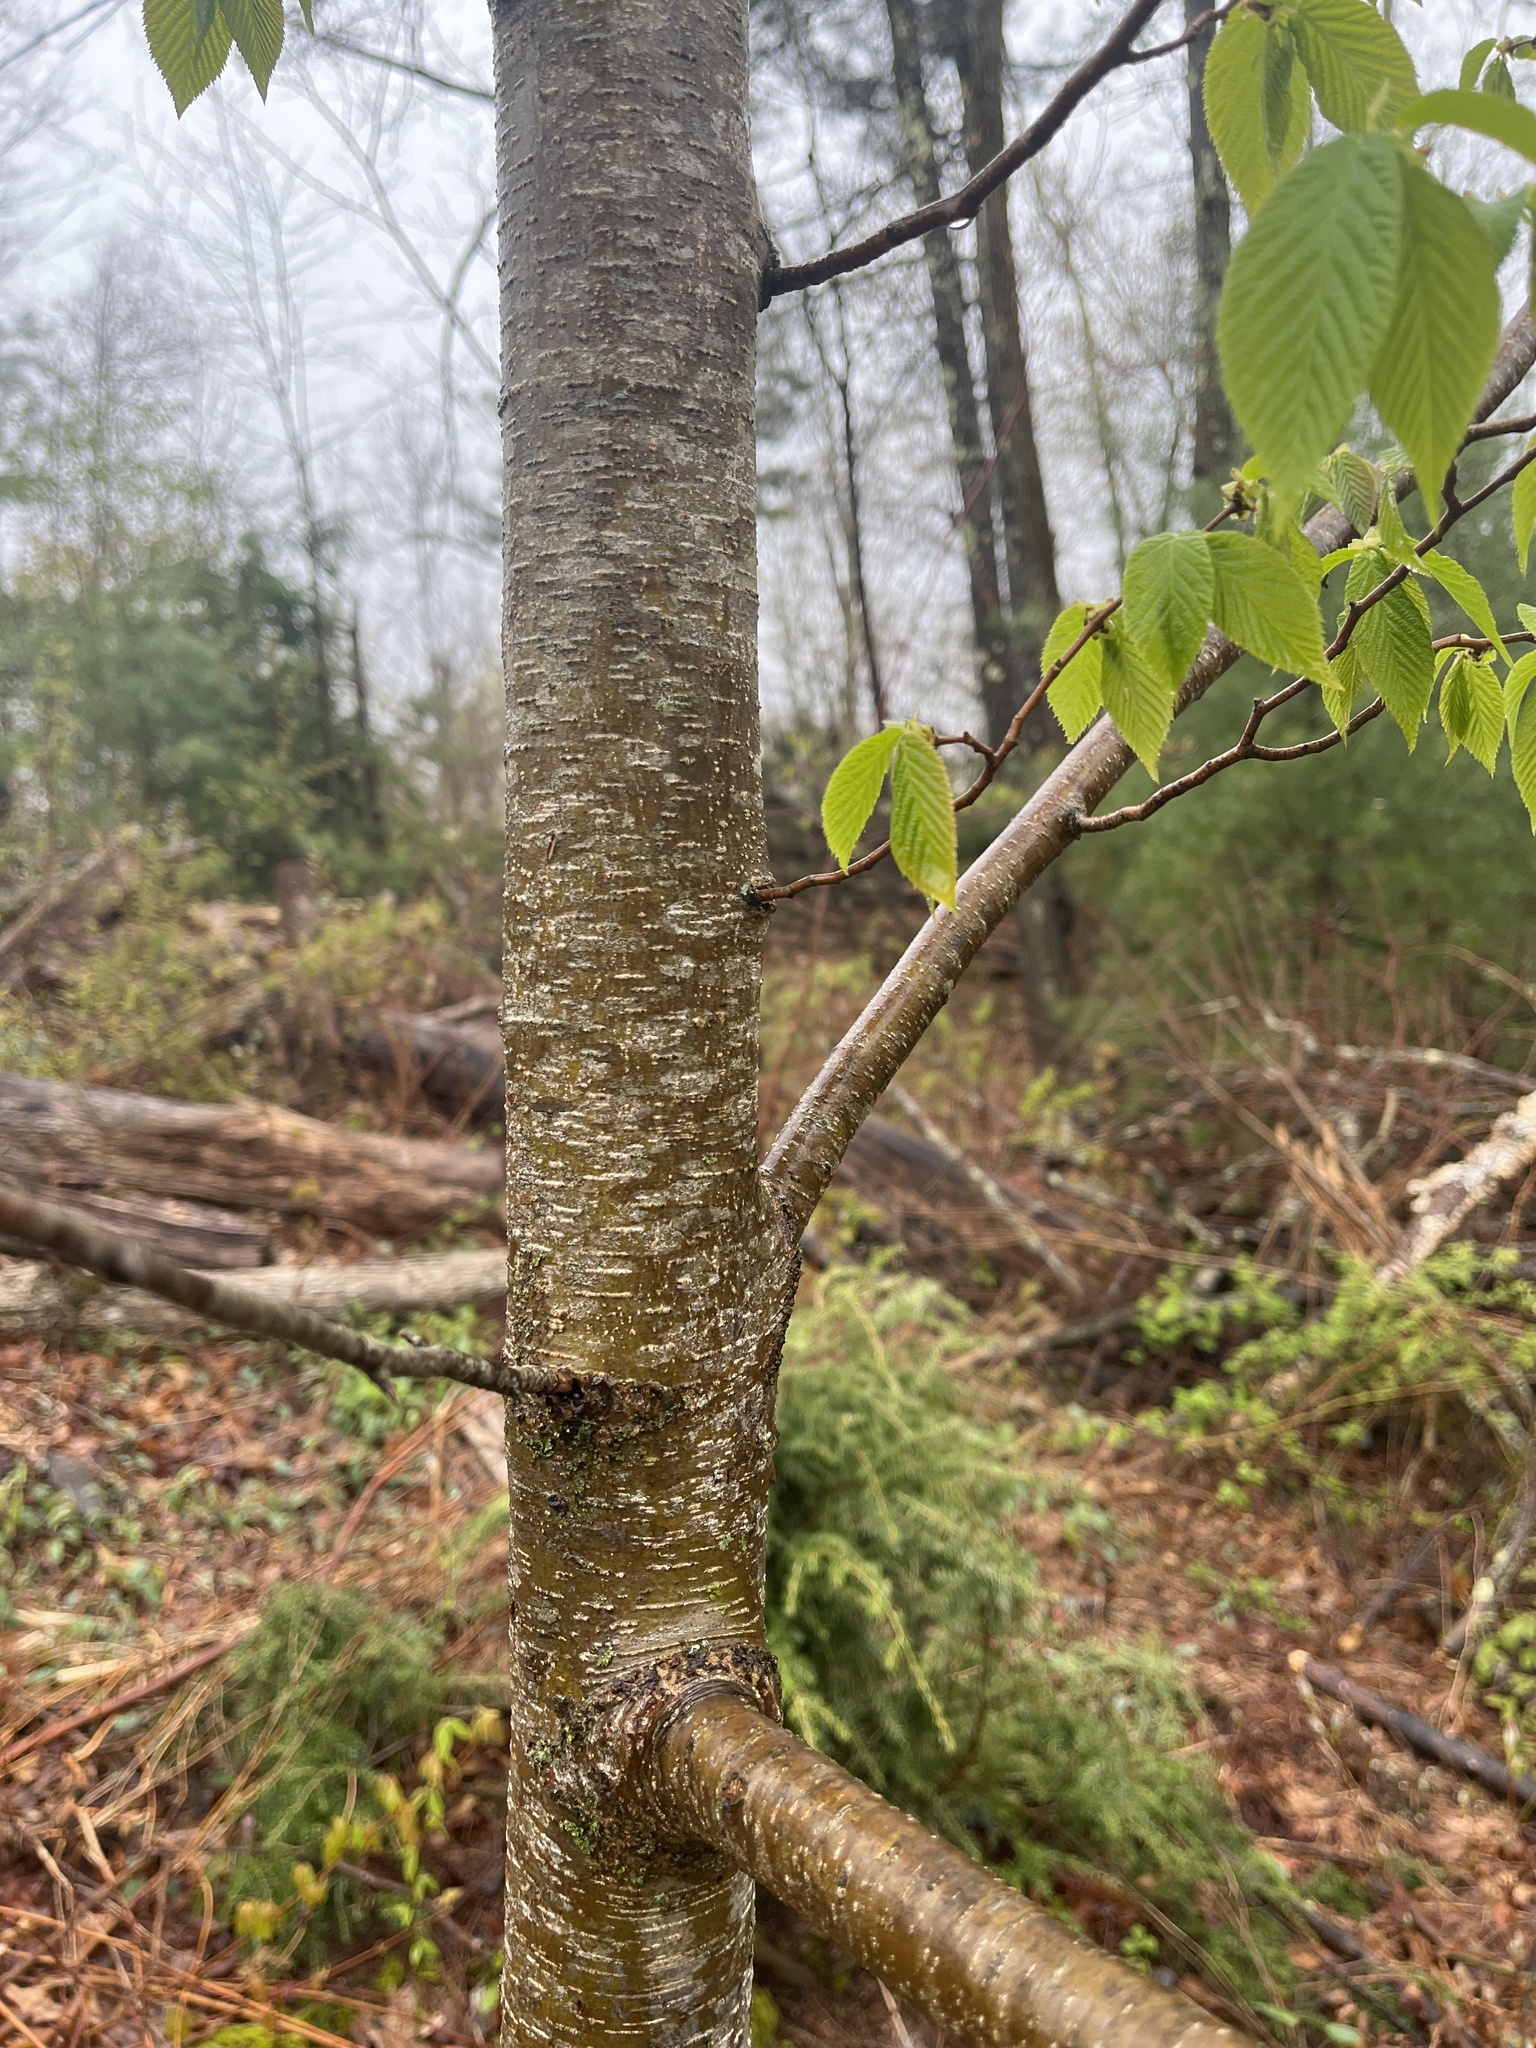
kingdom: Plantae
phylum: Tracheophyta
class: Magnoliopsida
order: Fagales
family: Betulaceae
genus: Ostrya
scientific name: Ostrya virginiana
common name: Ironwood
